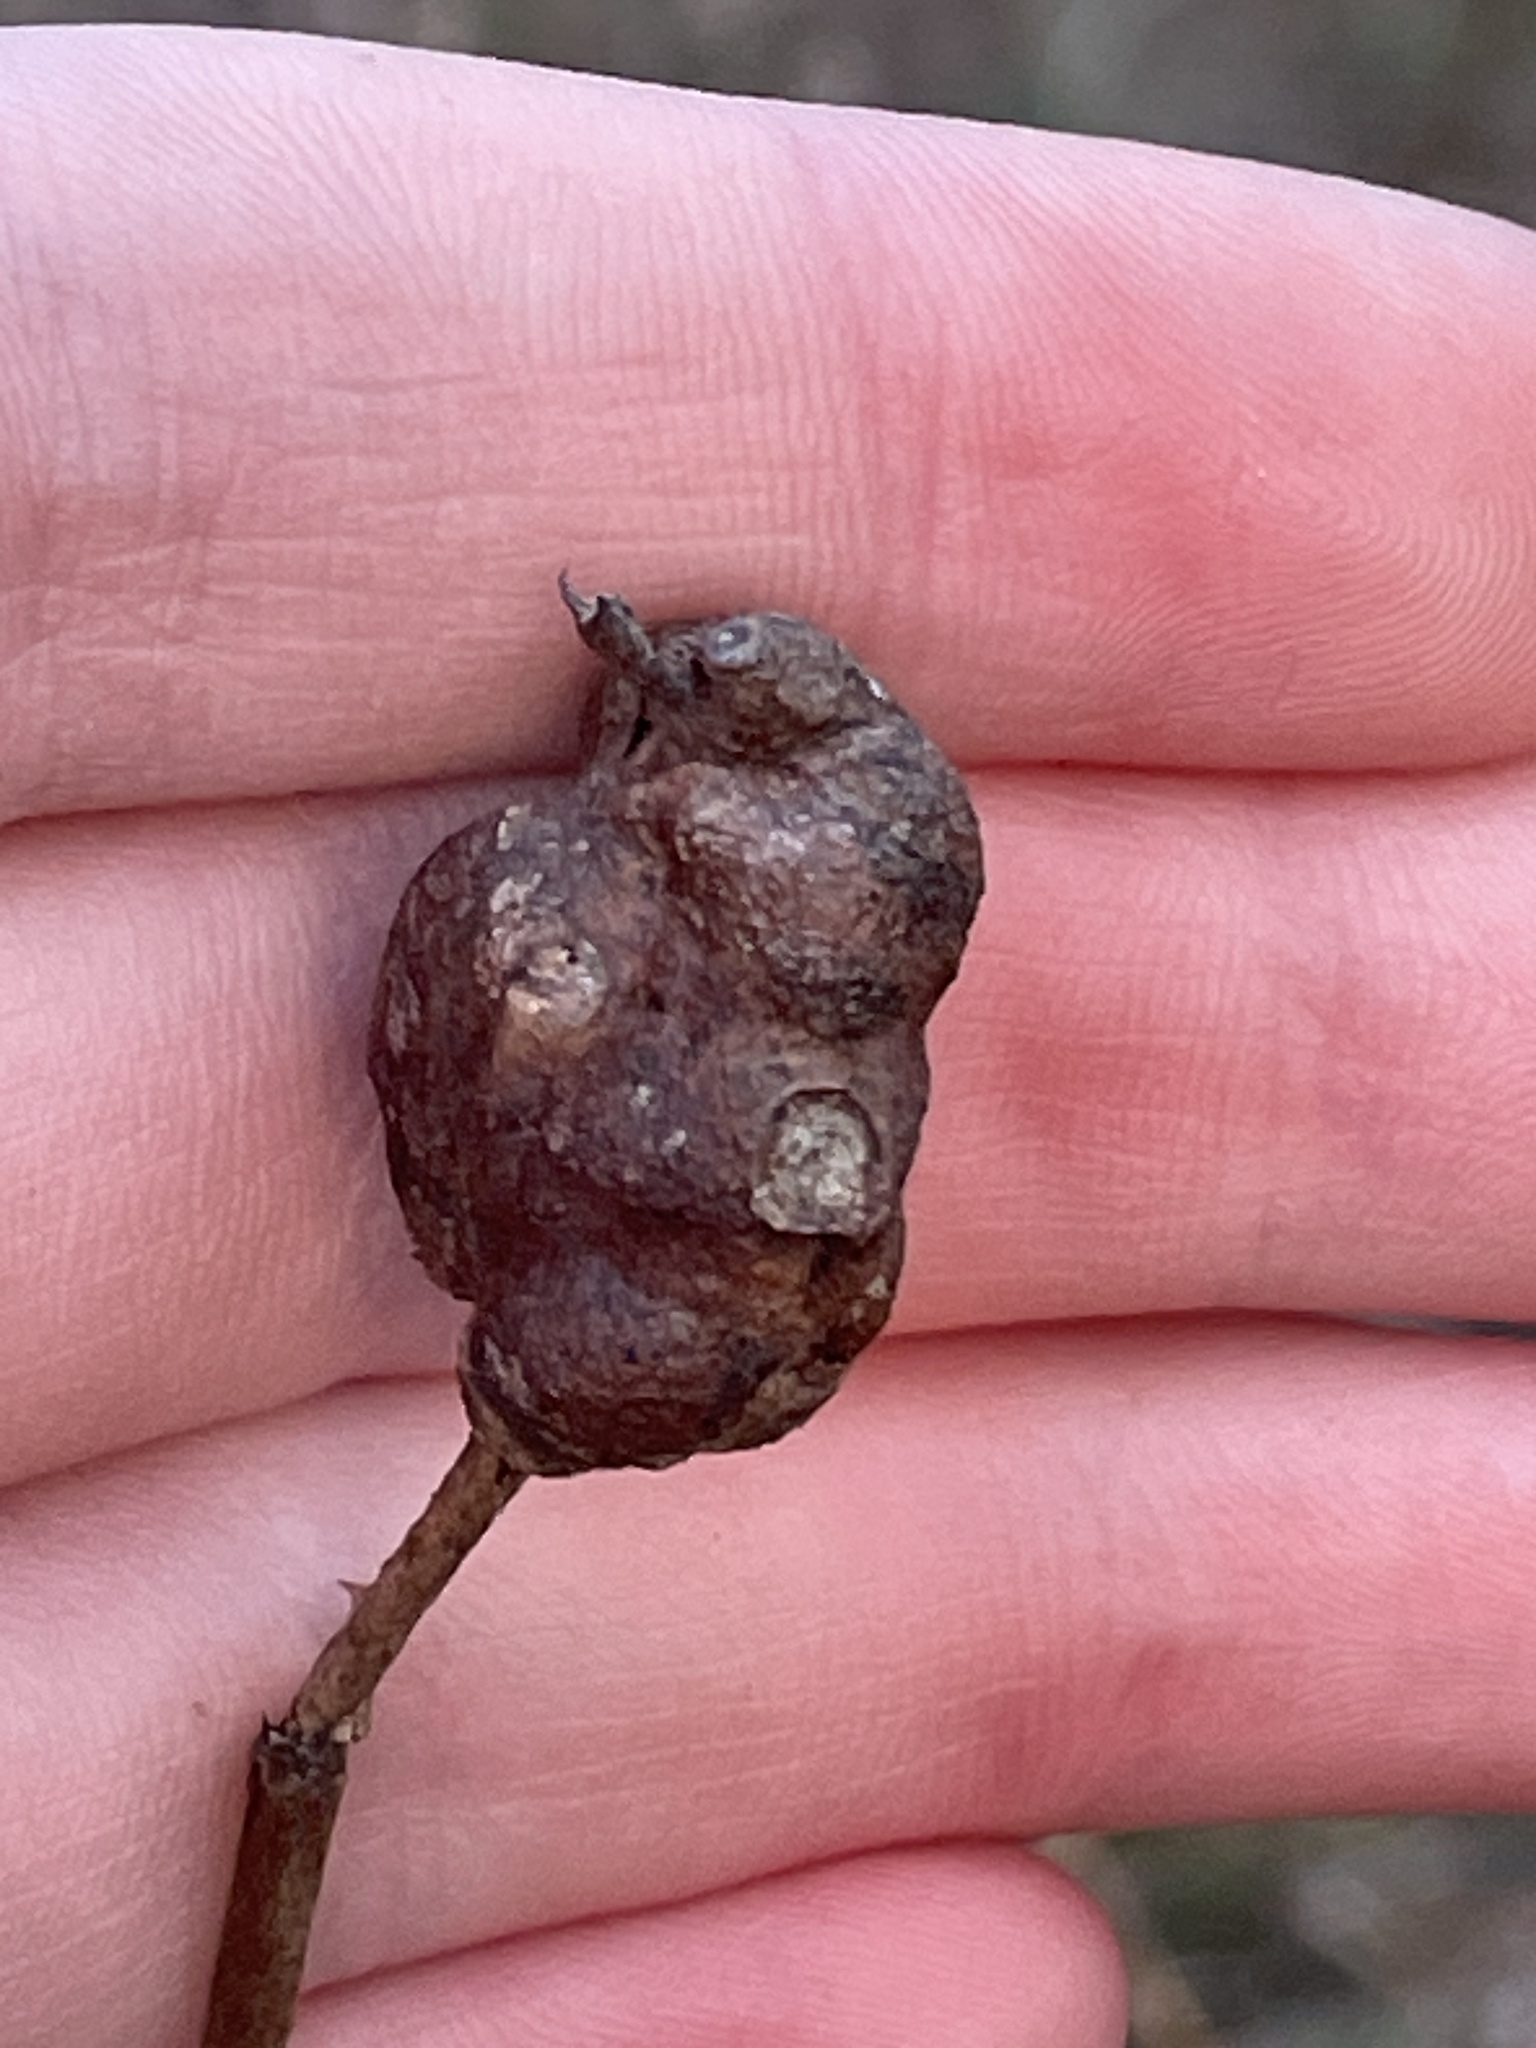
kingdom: Animalia
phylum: Arthropoda
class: Insecta
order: Hymenoptera
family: Cynipidae
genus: Diastrophus
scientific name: Diastrophus
